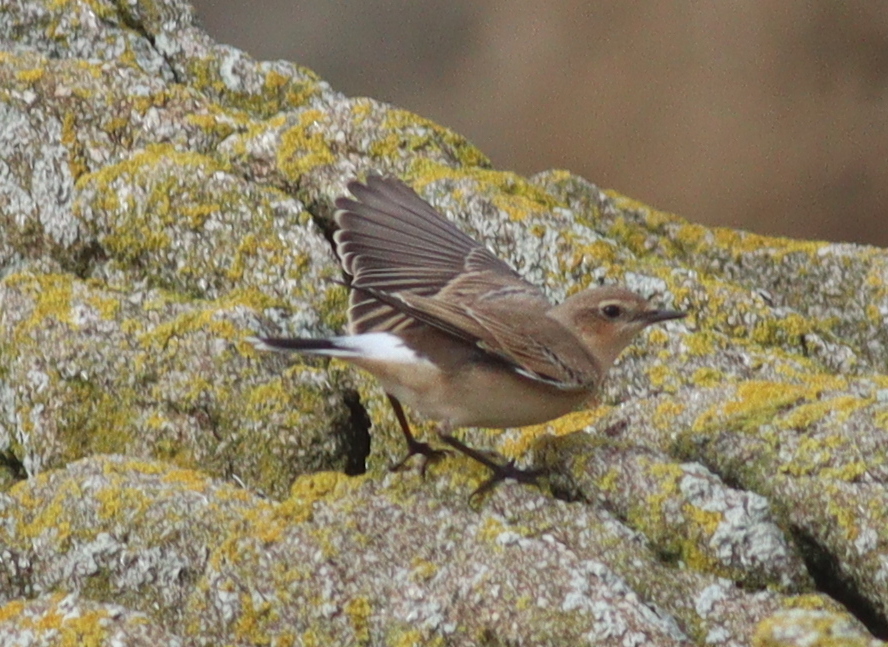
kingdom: Animalia
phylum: Chordata
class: Aves
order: Passeriformes
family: Muscicapidae
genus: Oenanthe
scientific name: Oenanthe oenanthe
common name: Northern wheatear
